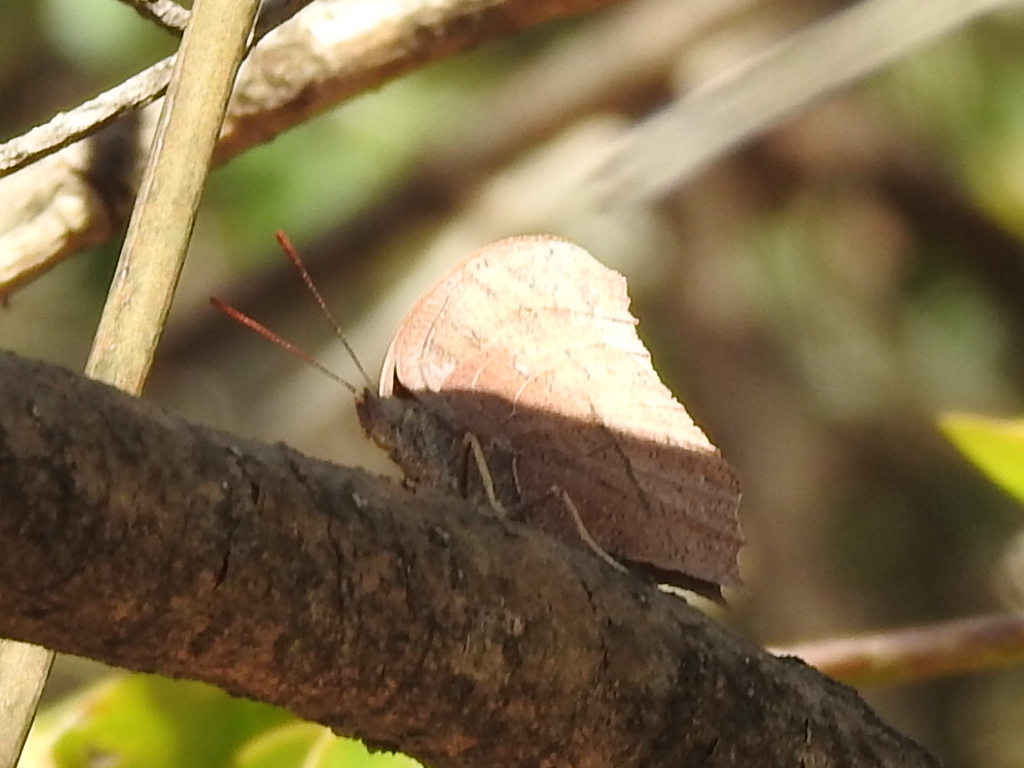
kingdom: Animalia
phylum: Arthropoda
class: Insecta
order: Lepidoptera
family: Nymphalidae
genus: Anaea
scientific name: Anaea andria
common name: Goatweed leafwing
